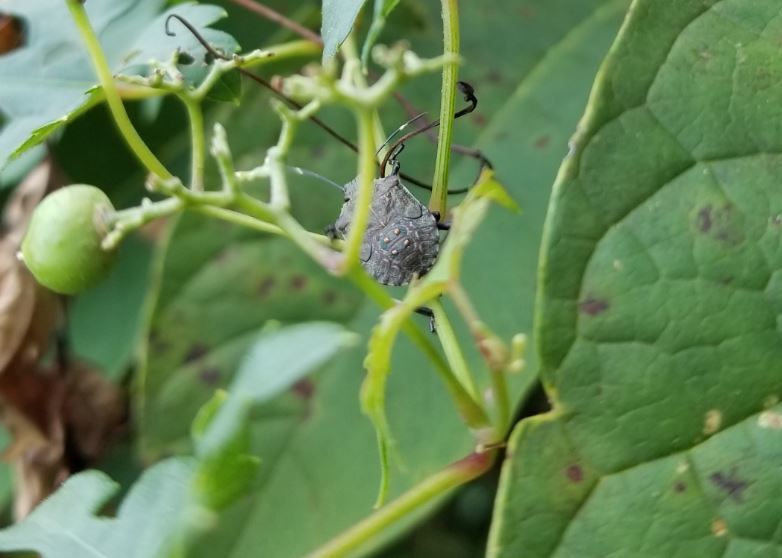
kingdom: Animalia
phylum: Arthropoda
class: Insecta
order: Hemiptera
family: Pentatomidae
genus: Halyomorpha
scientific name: Halyomorpha halys
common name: Brown marmorated stink bug
